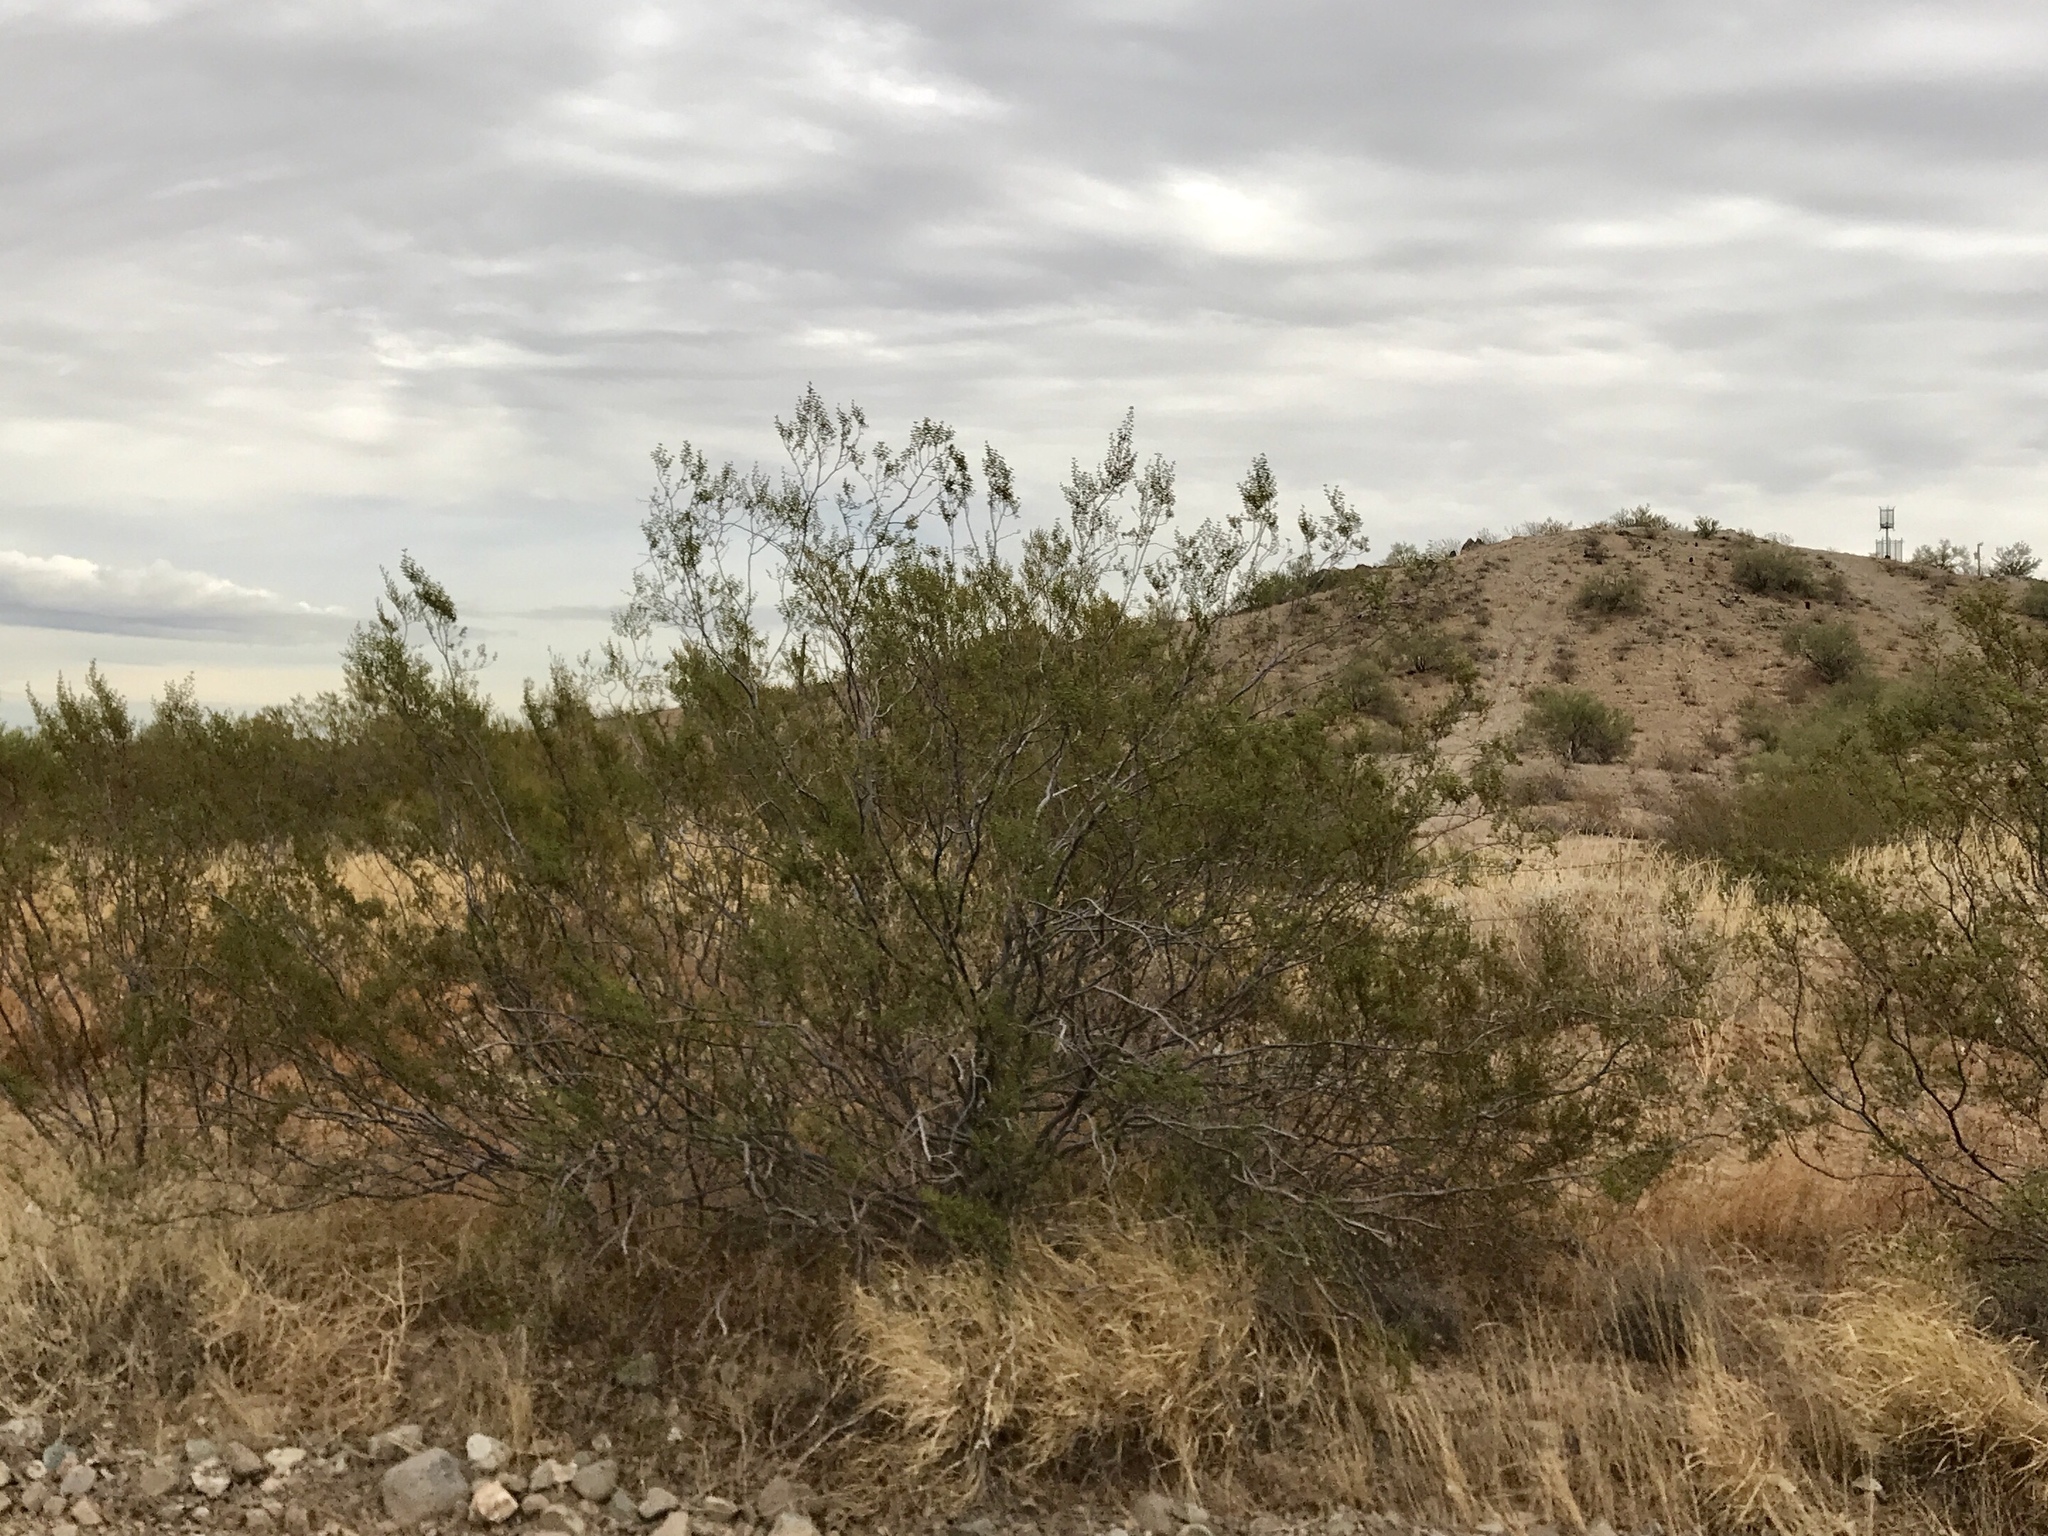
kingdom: Plantae
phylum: Tracheophyta
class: Magnoliopsida
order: Zygophyllales
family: Zygophyllaceae
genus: Larrea
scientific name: Larrea tridentata
